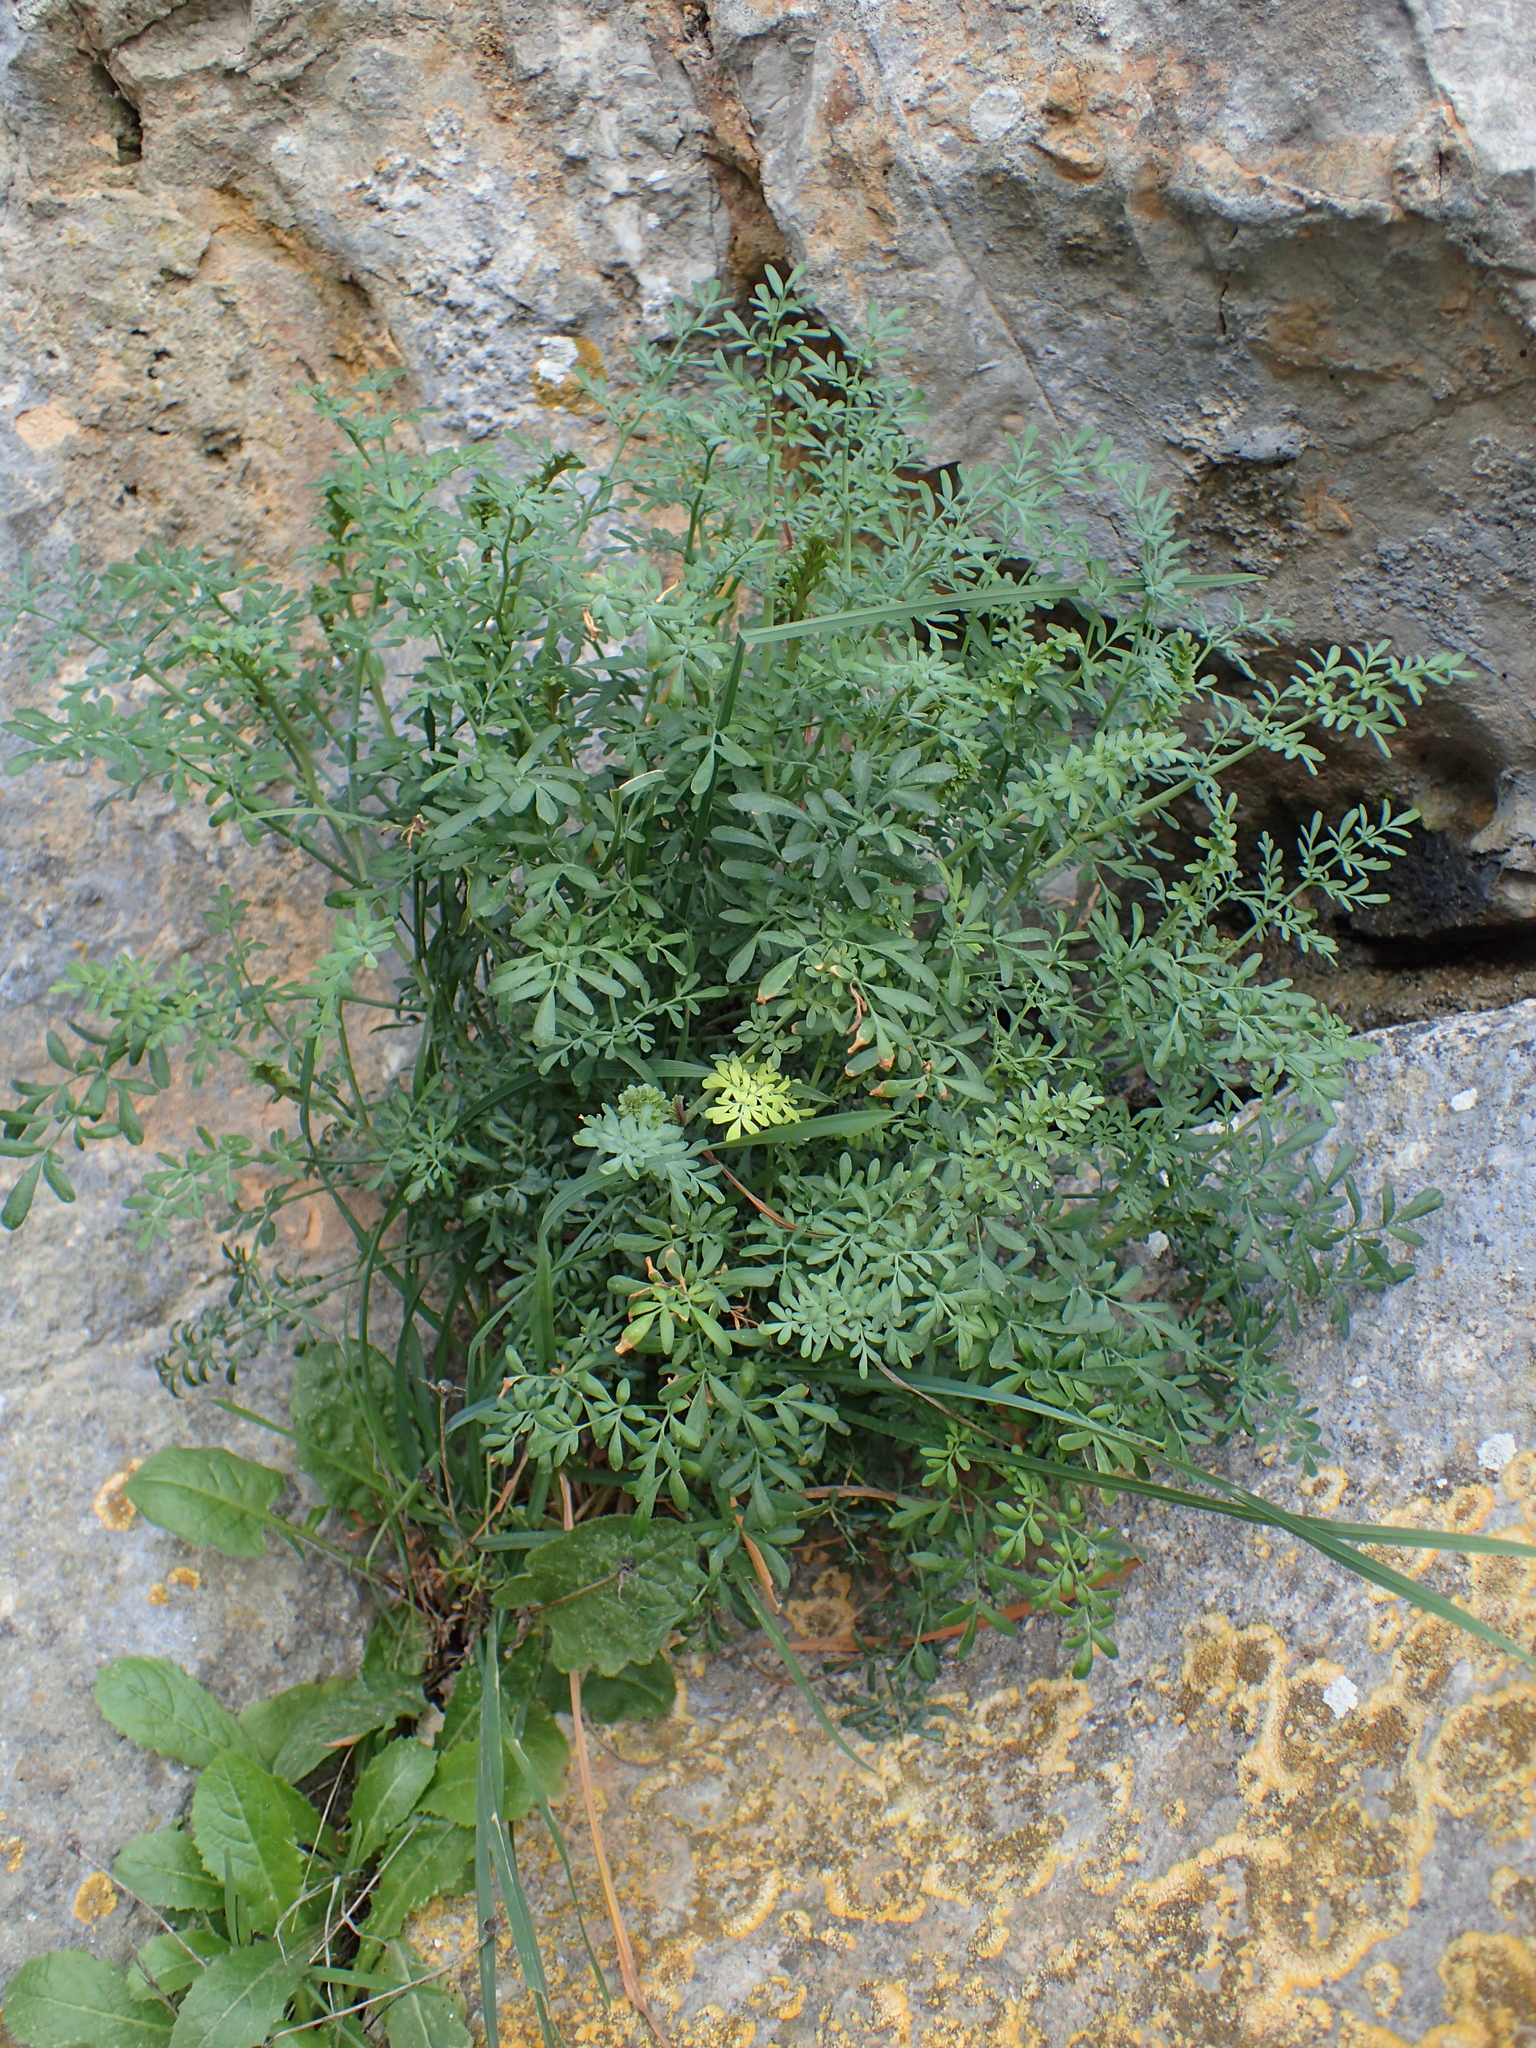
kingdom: Plantae
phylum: Tracheophyta
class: Magnoliopsida
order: Sapindales
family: Rutaceae
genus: Ruta
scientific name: Ruta angustifolia
